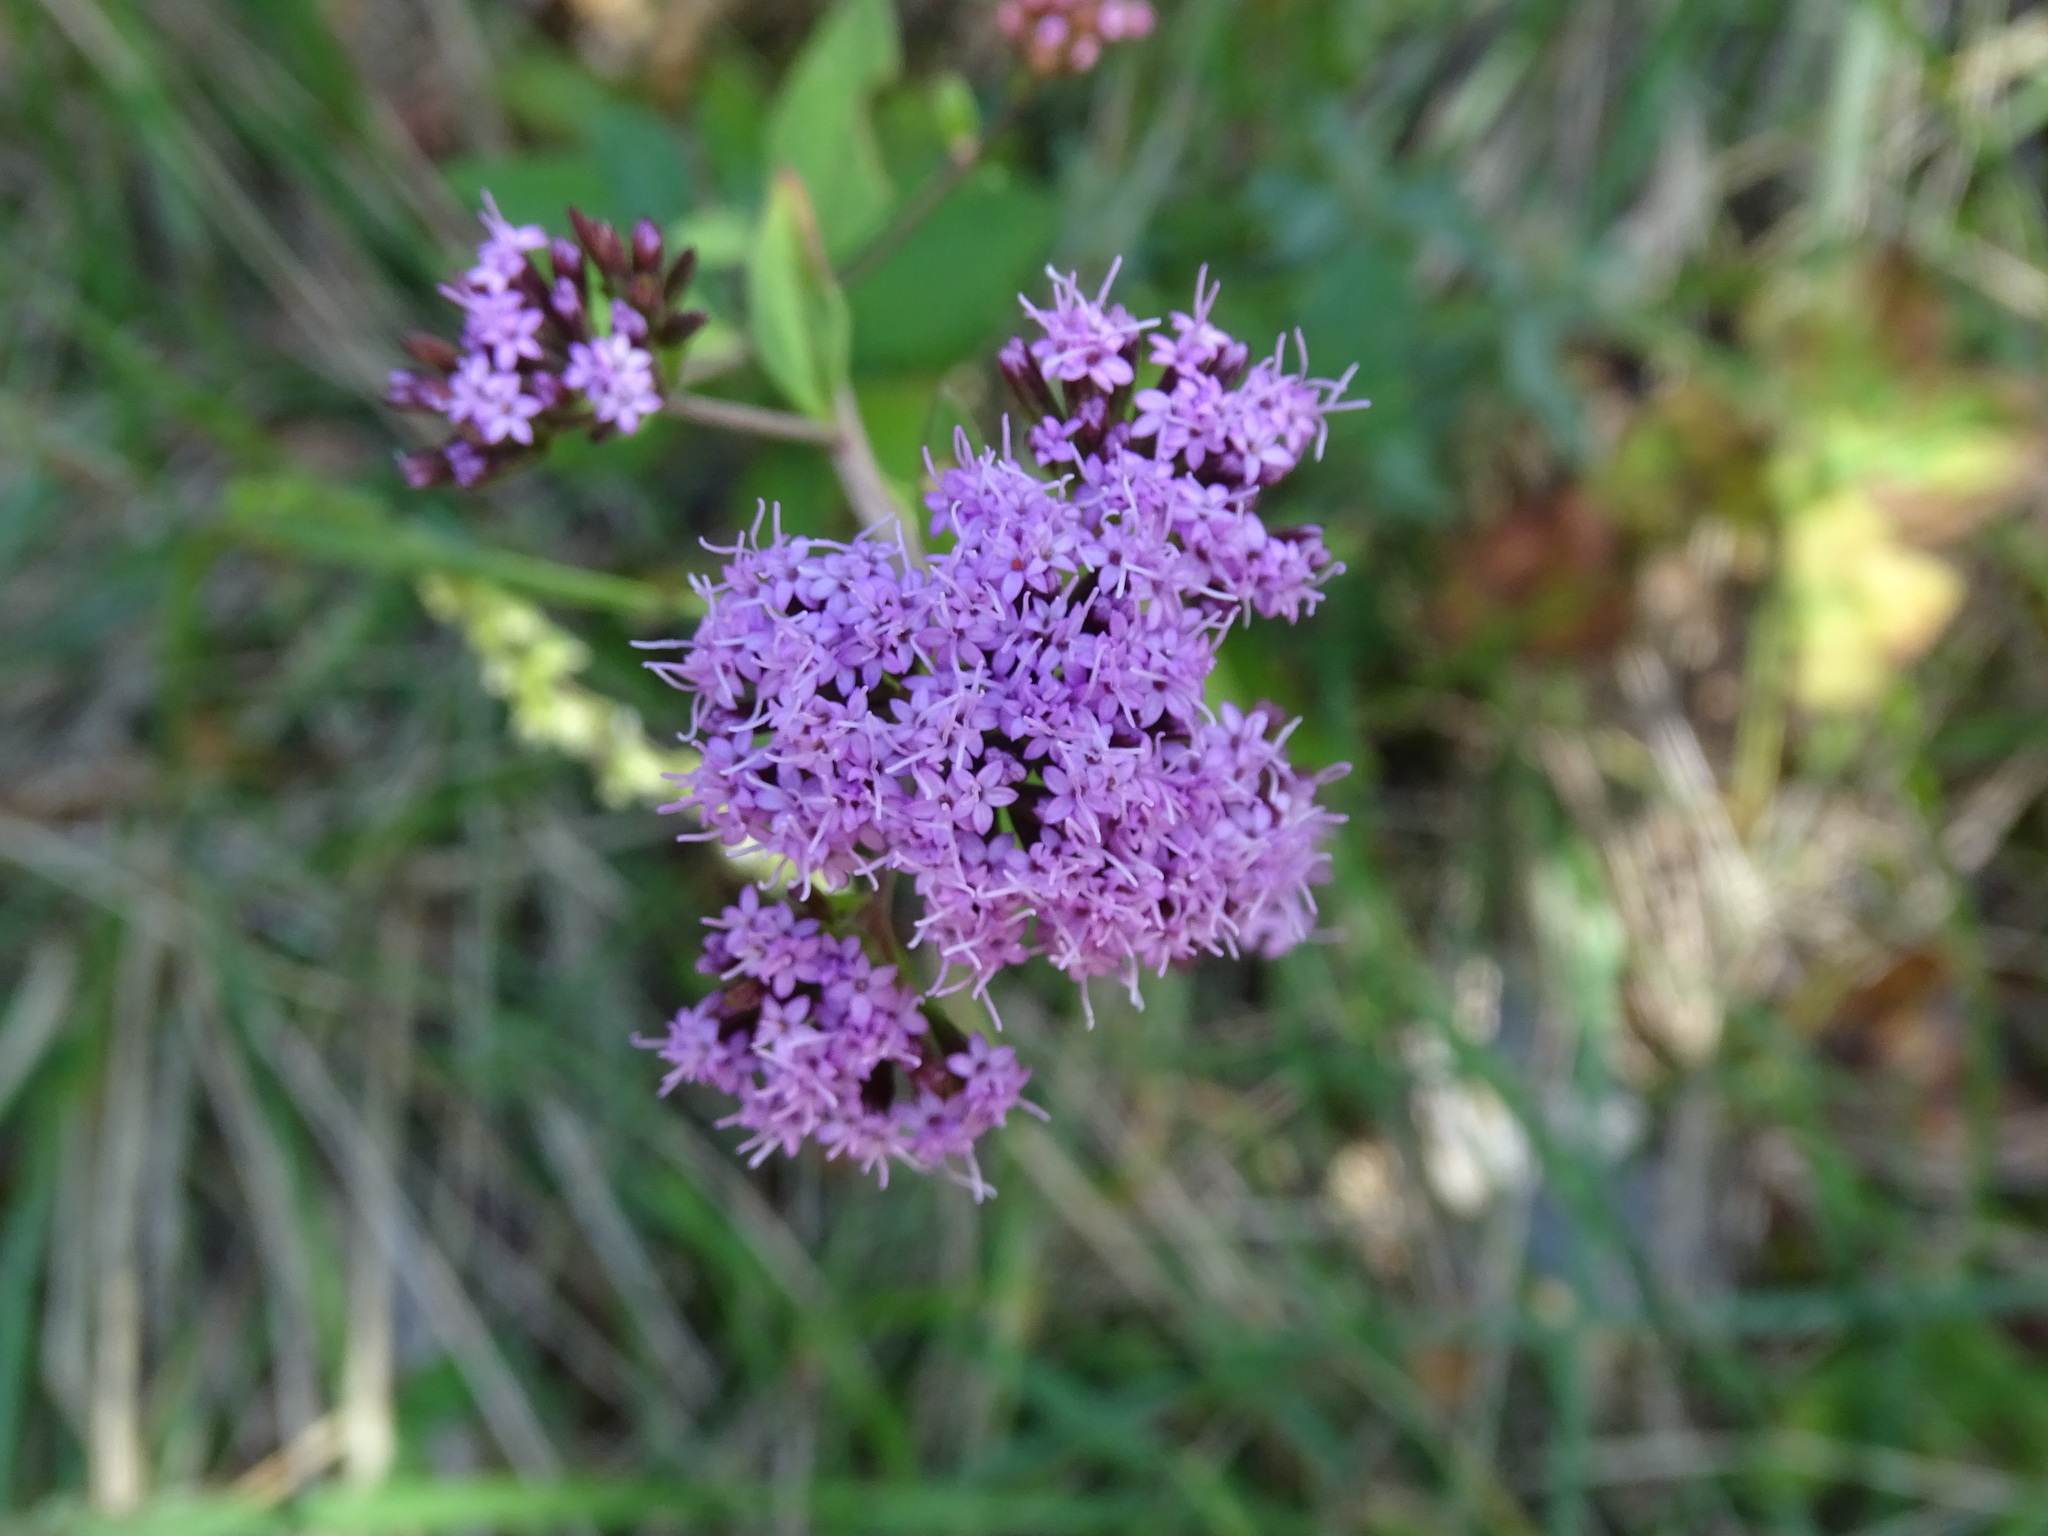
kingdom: Plantae
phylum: Tracheophyta
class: Magnoliopsida
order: Asterales
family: Asteraceae
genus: Stevia
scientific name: Stevia jorullensis
